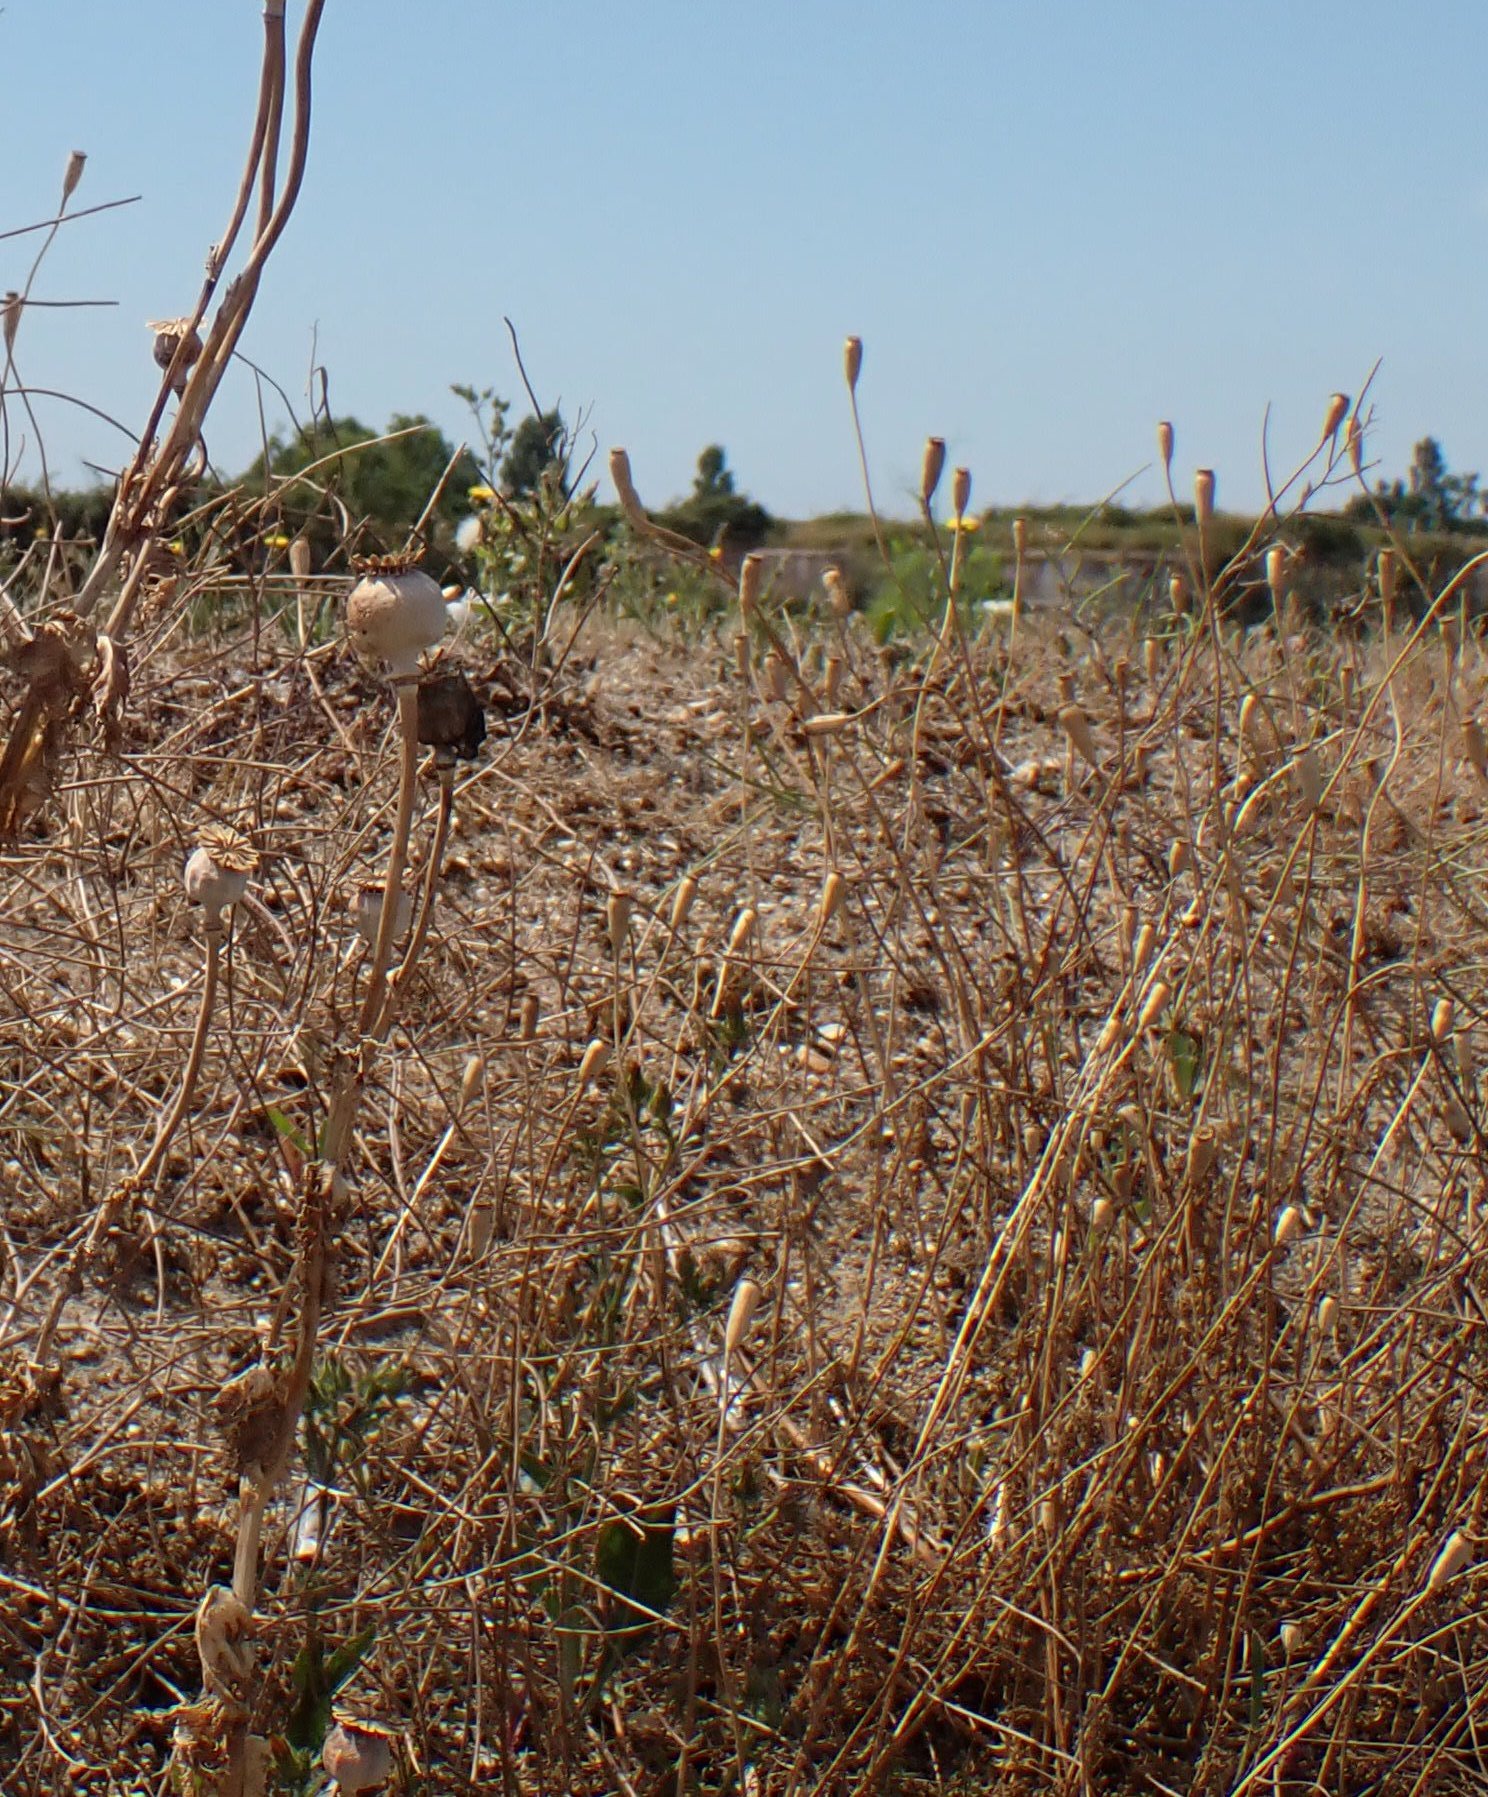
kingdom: Plantae
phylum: Tracheophyta
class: Magnoliopsida
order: Ranunculales
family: Papaveraceae
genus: Papaver
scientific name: Papaver dubium
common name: Long-headed poppy
